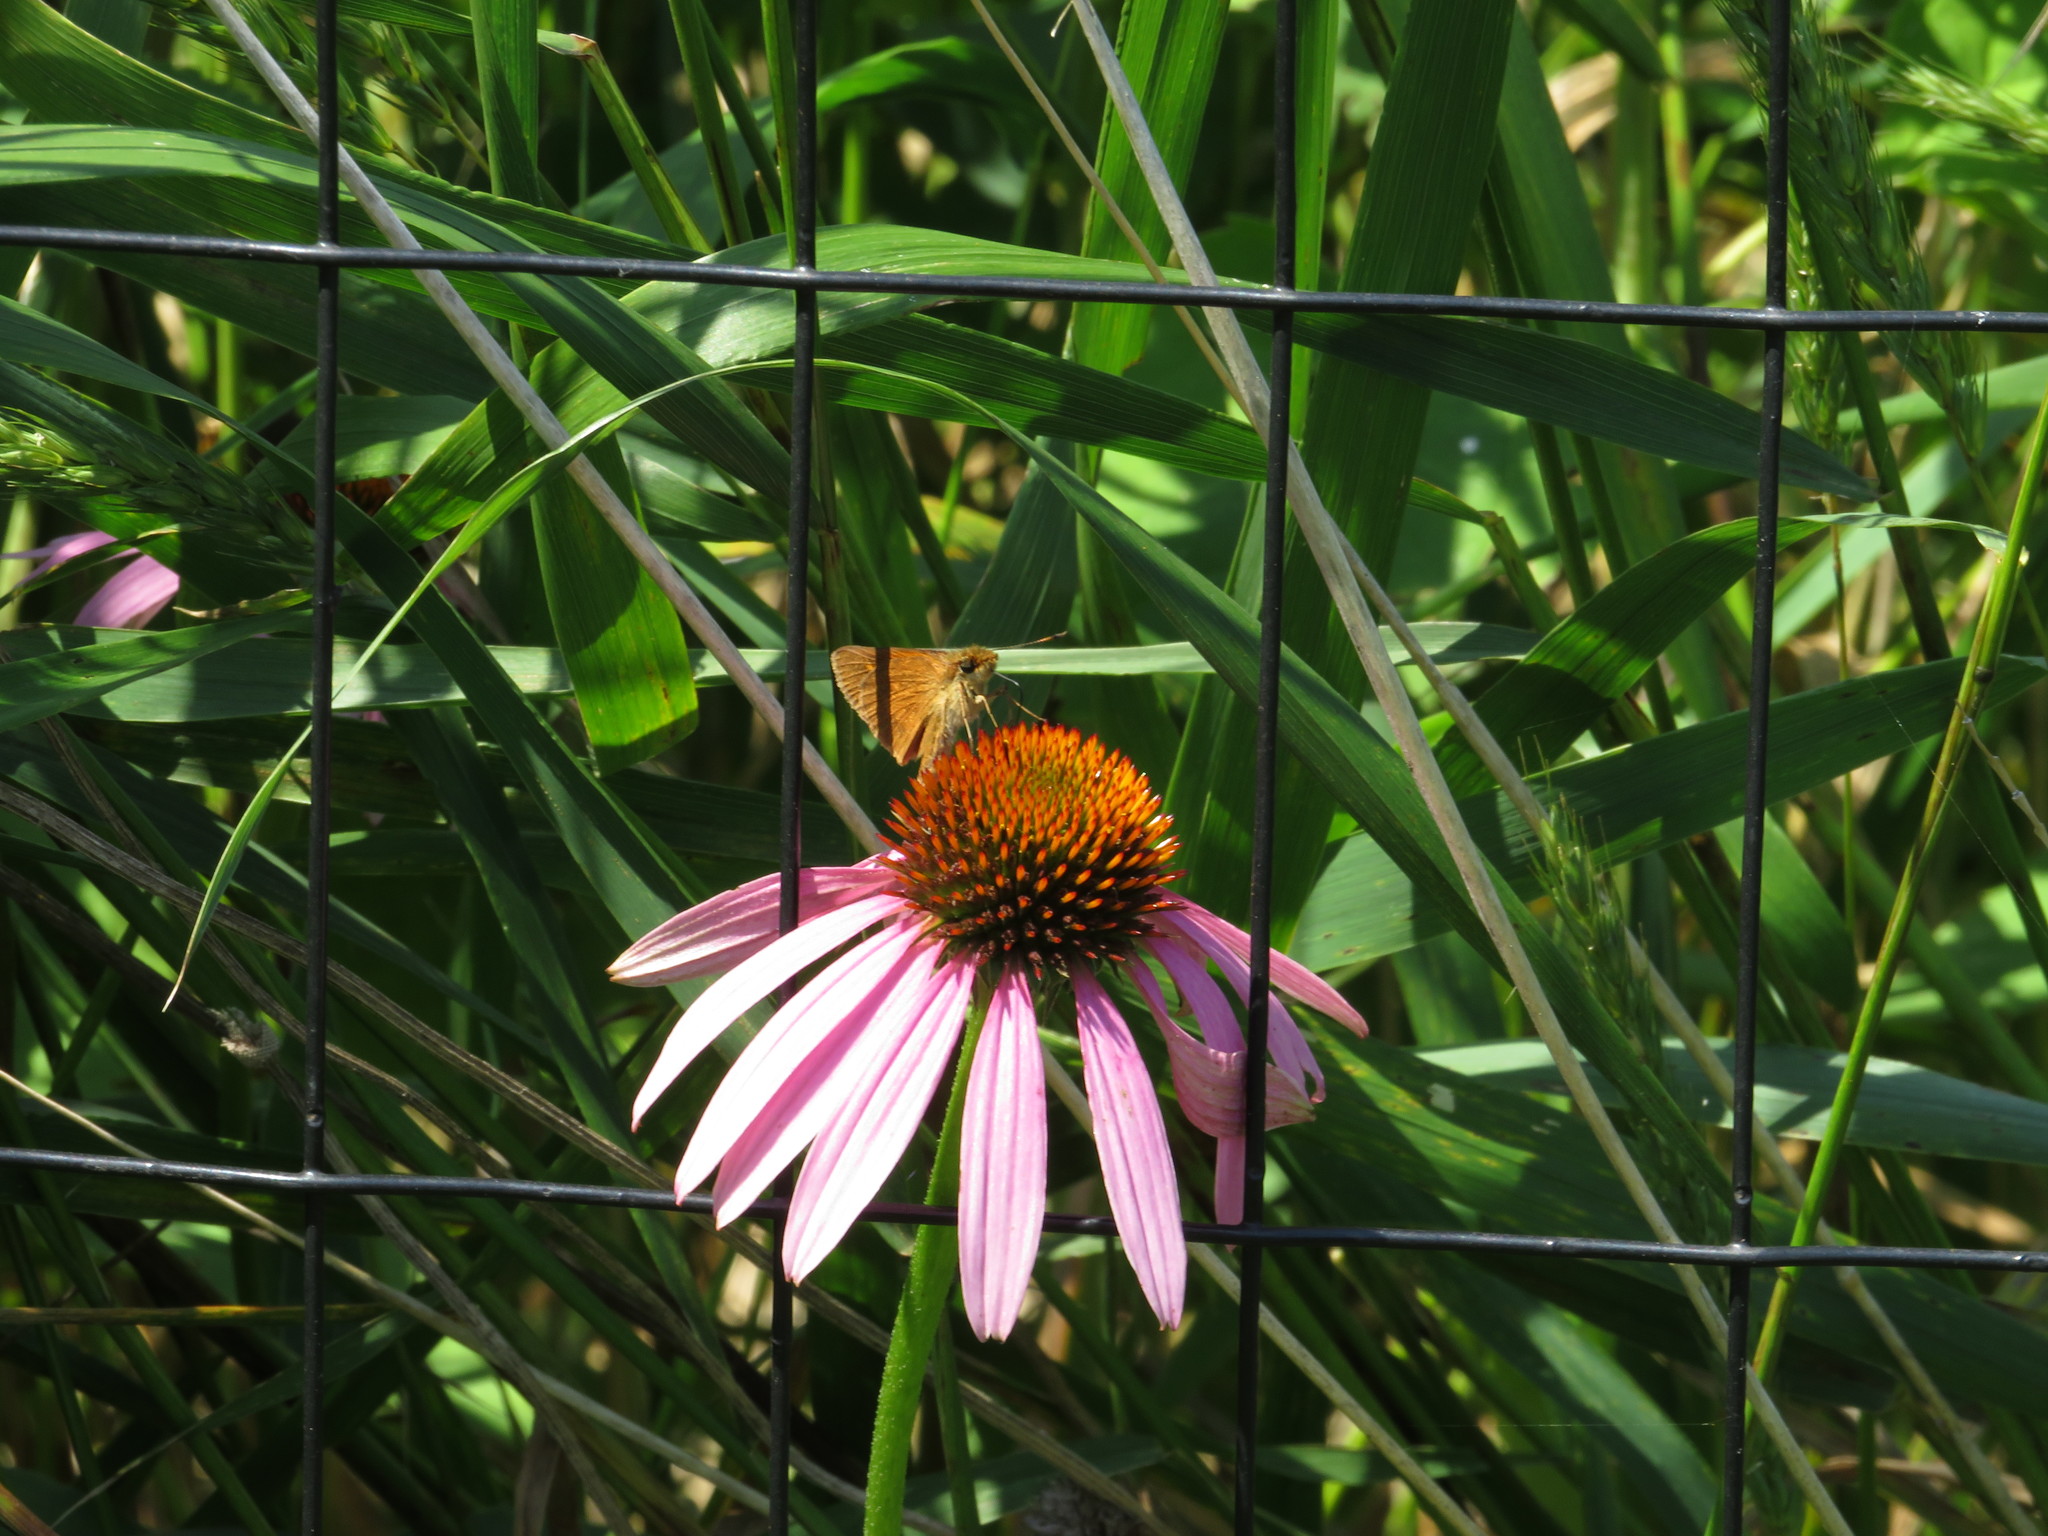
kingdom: Plantae
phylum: Tracheophyta
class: Magnoliopsida
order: Asterales
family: Asteraceae
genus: Echinacea
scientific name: Echinacea purpurea
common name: Broad-leaved purple coneflower
